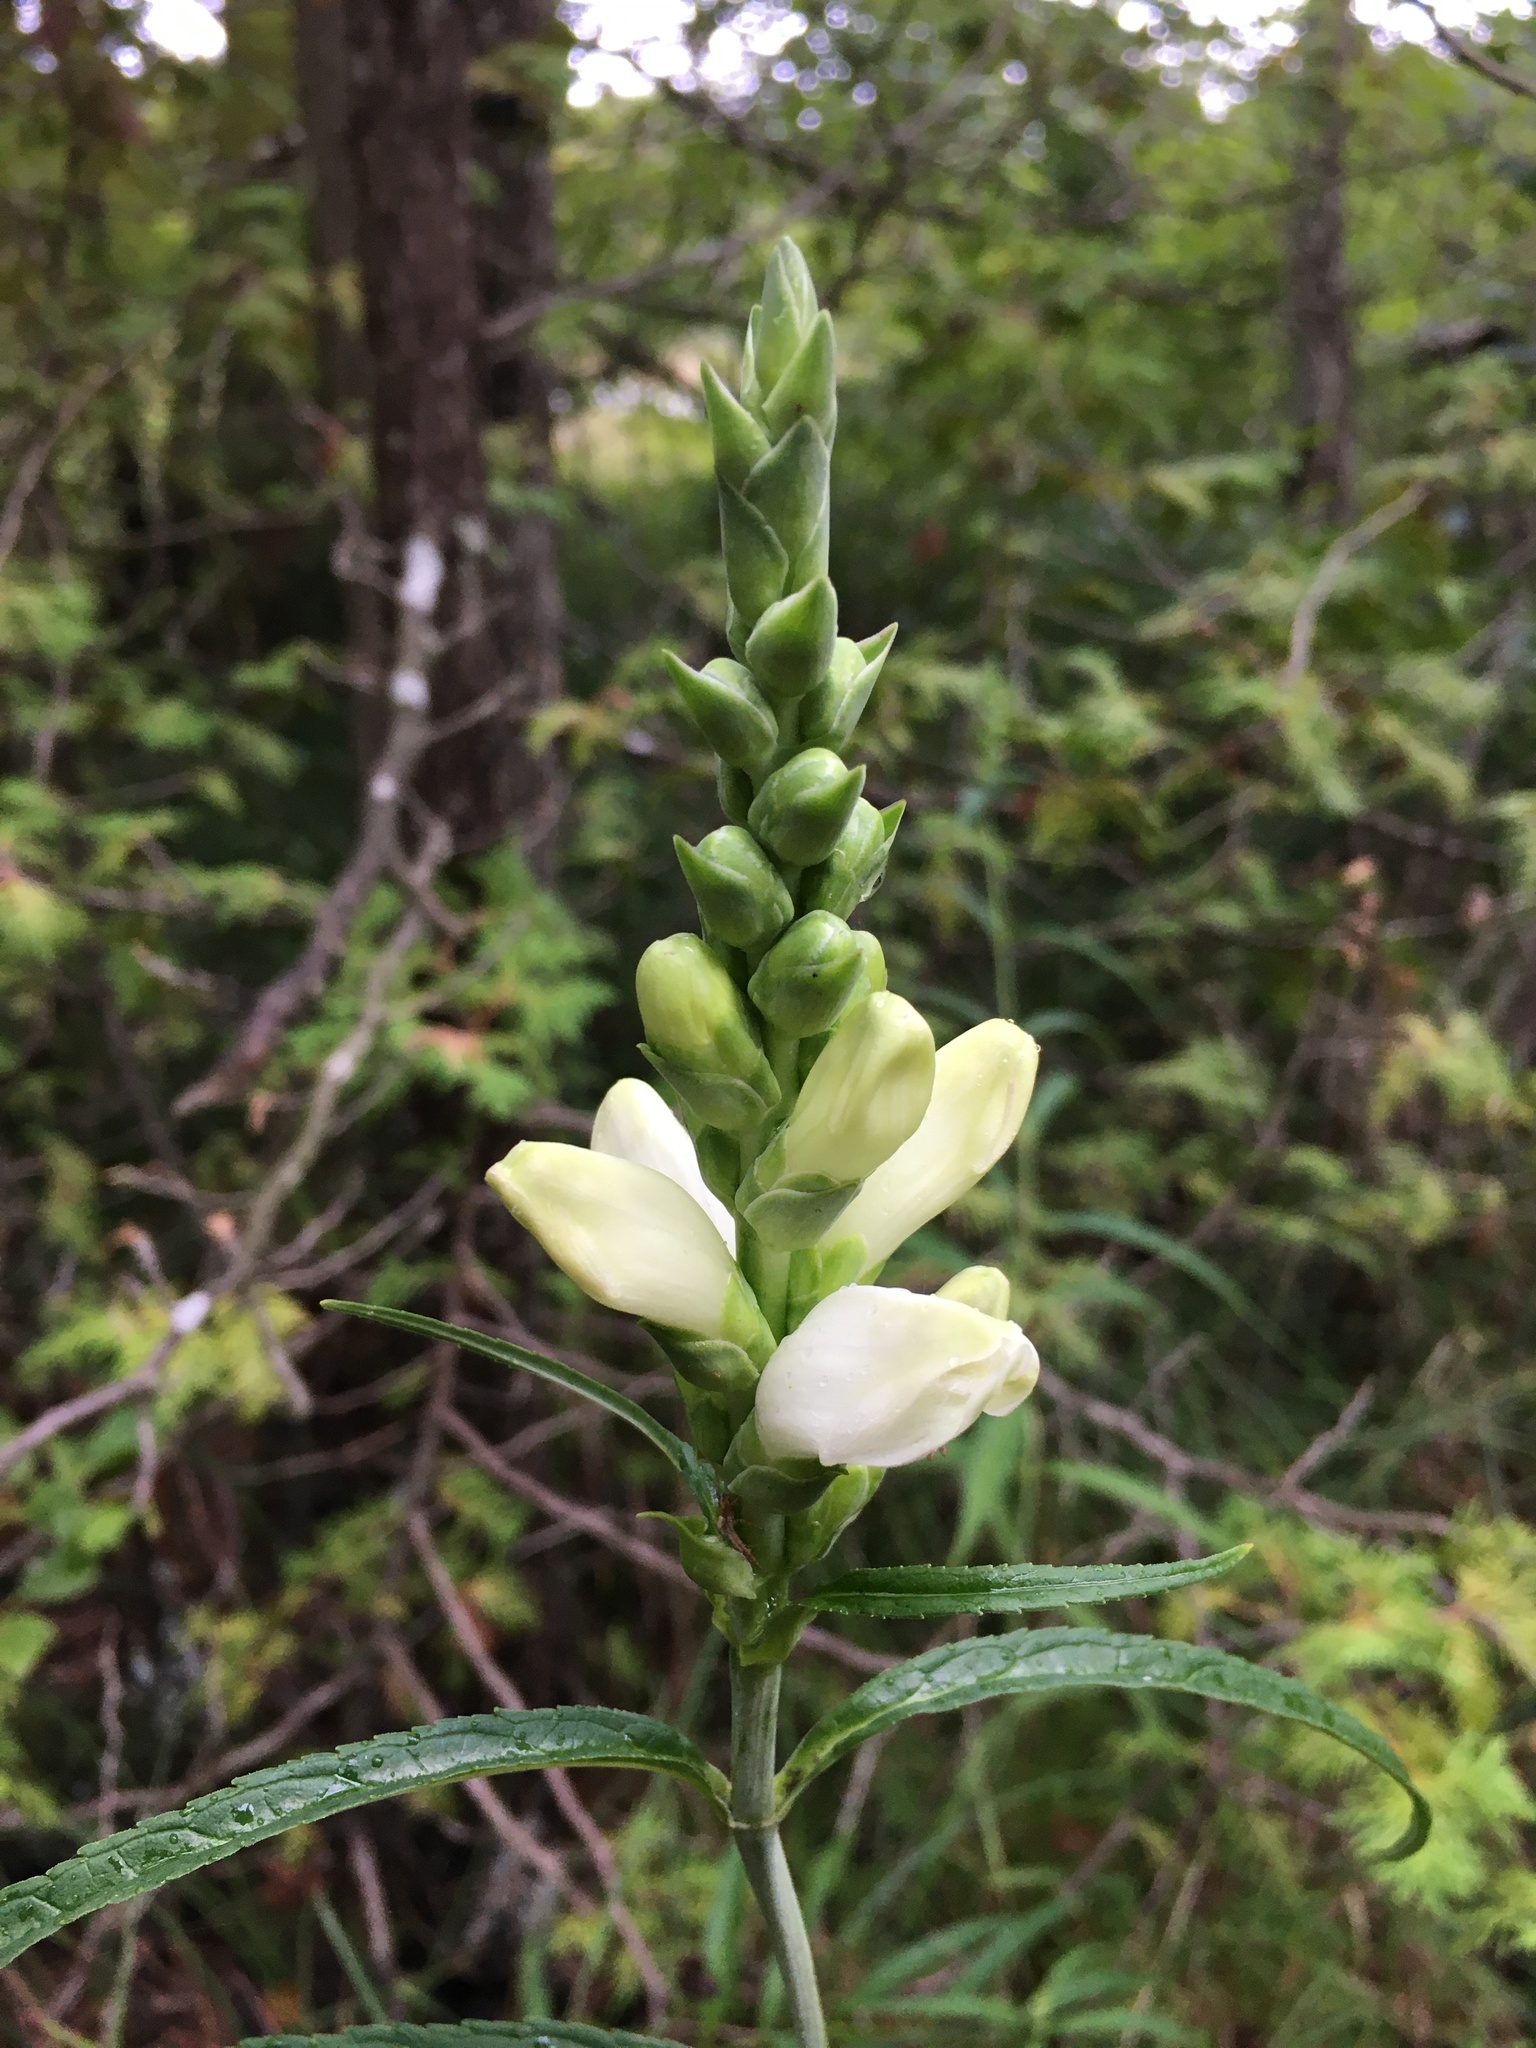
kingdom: Plantae
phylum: Tracheophyta
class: Magnoliopsida
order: Lamiales
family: Plantaginaceae
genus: Chelone
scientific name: Chelone glabra
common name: Snakehead
